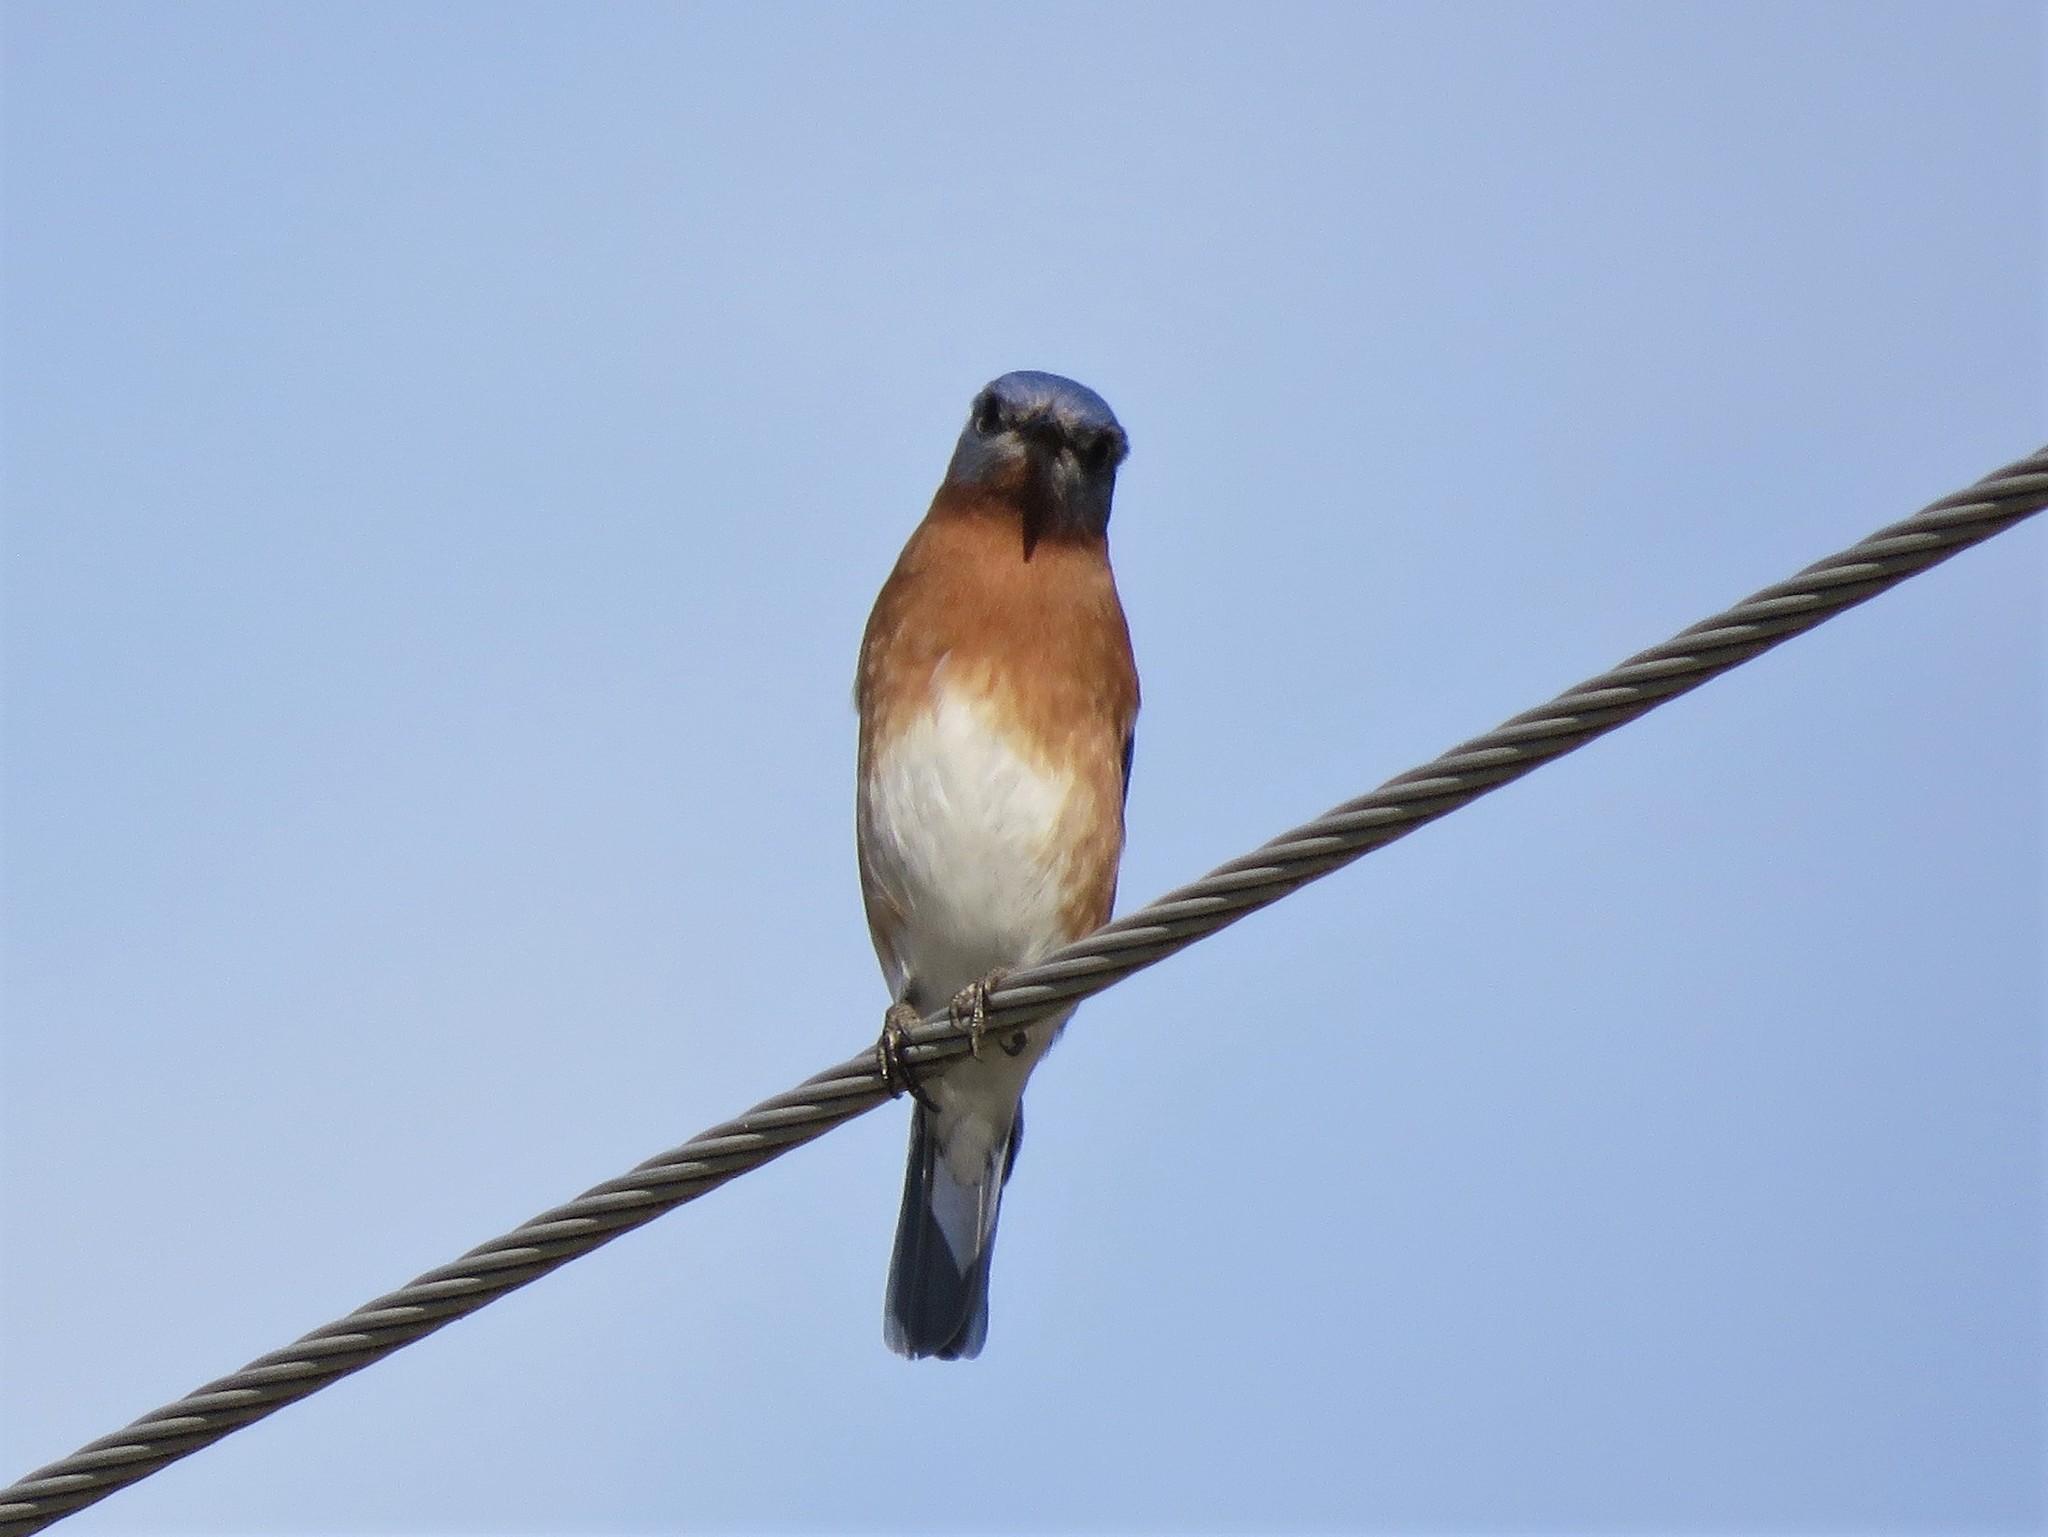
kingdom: Animalia
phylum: Chordata
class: Aves
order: Passeriformes
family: Turdidae
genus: Sialia
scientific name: Sialia sialis
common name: Eastern bluebird
